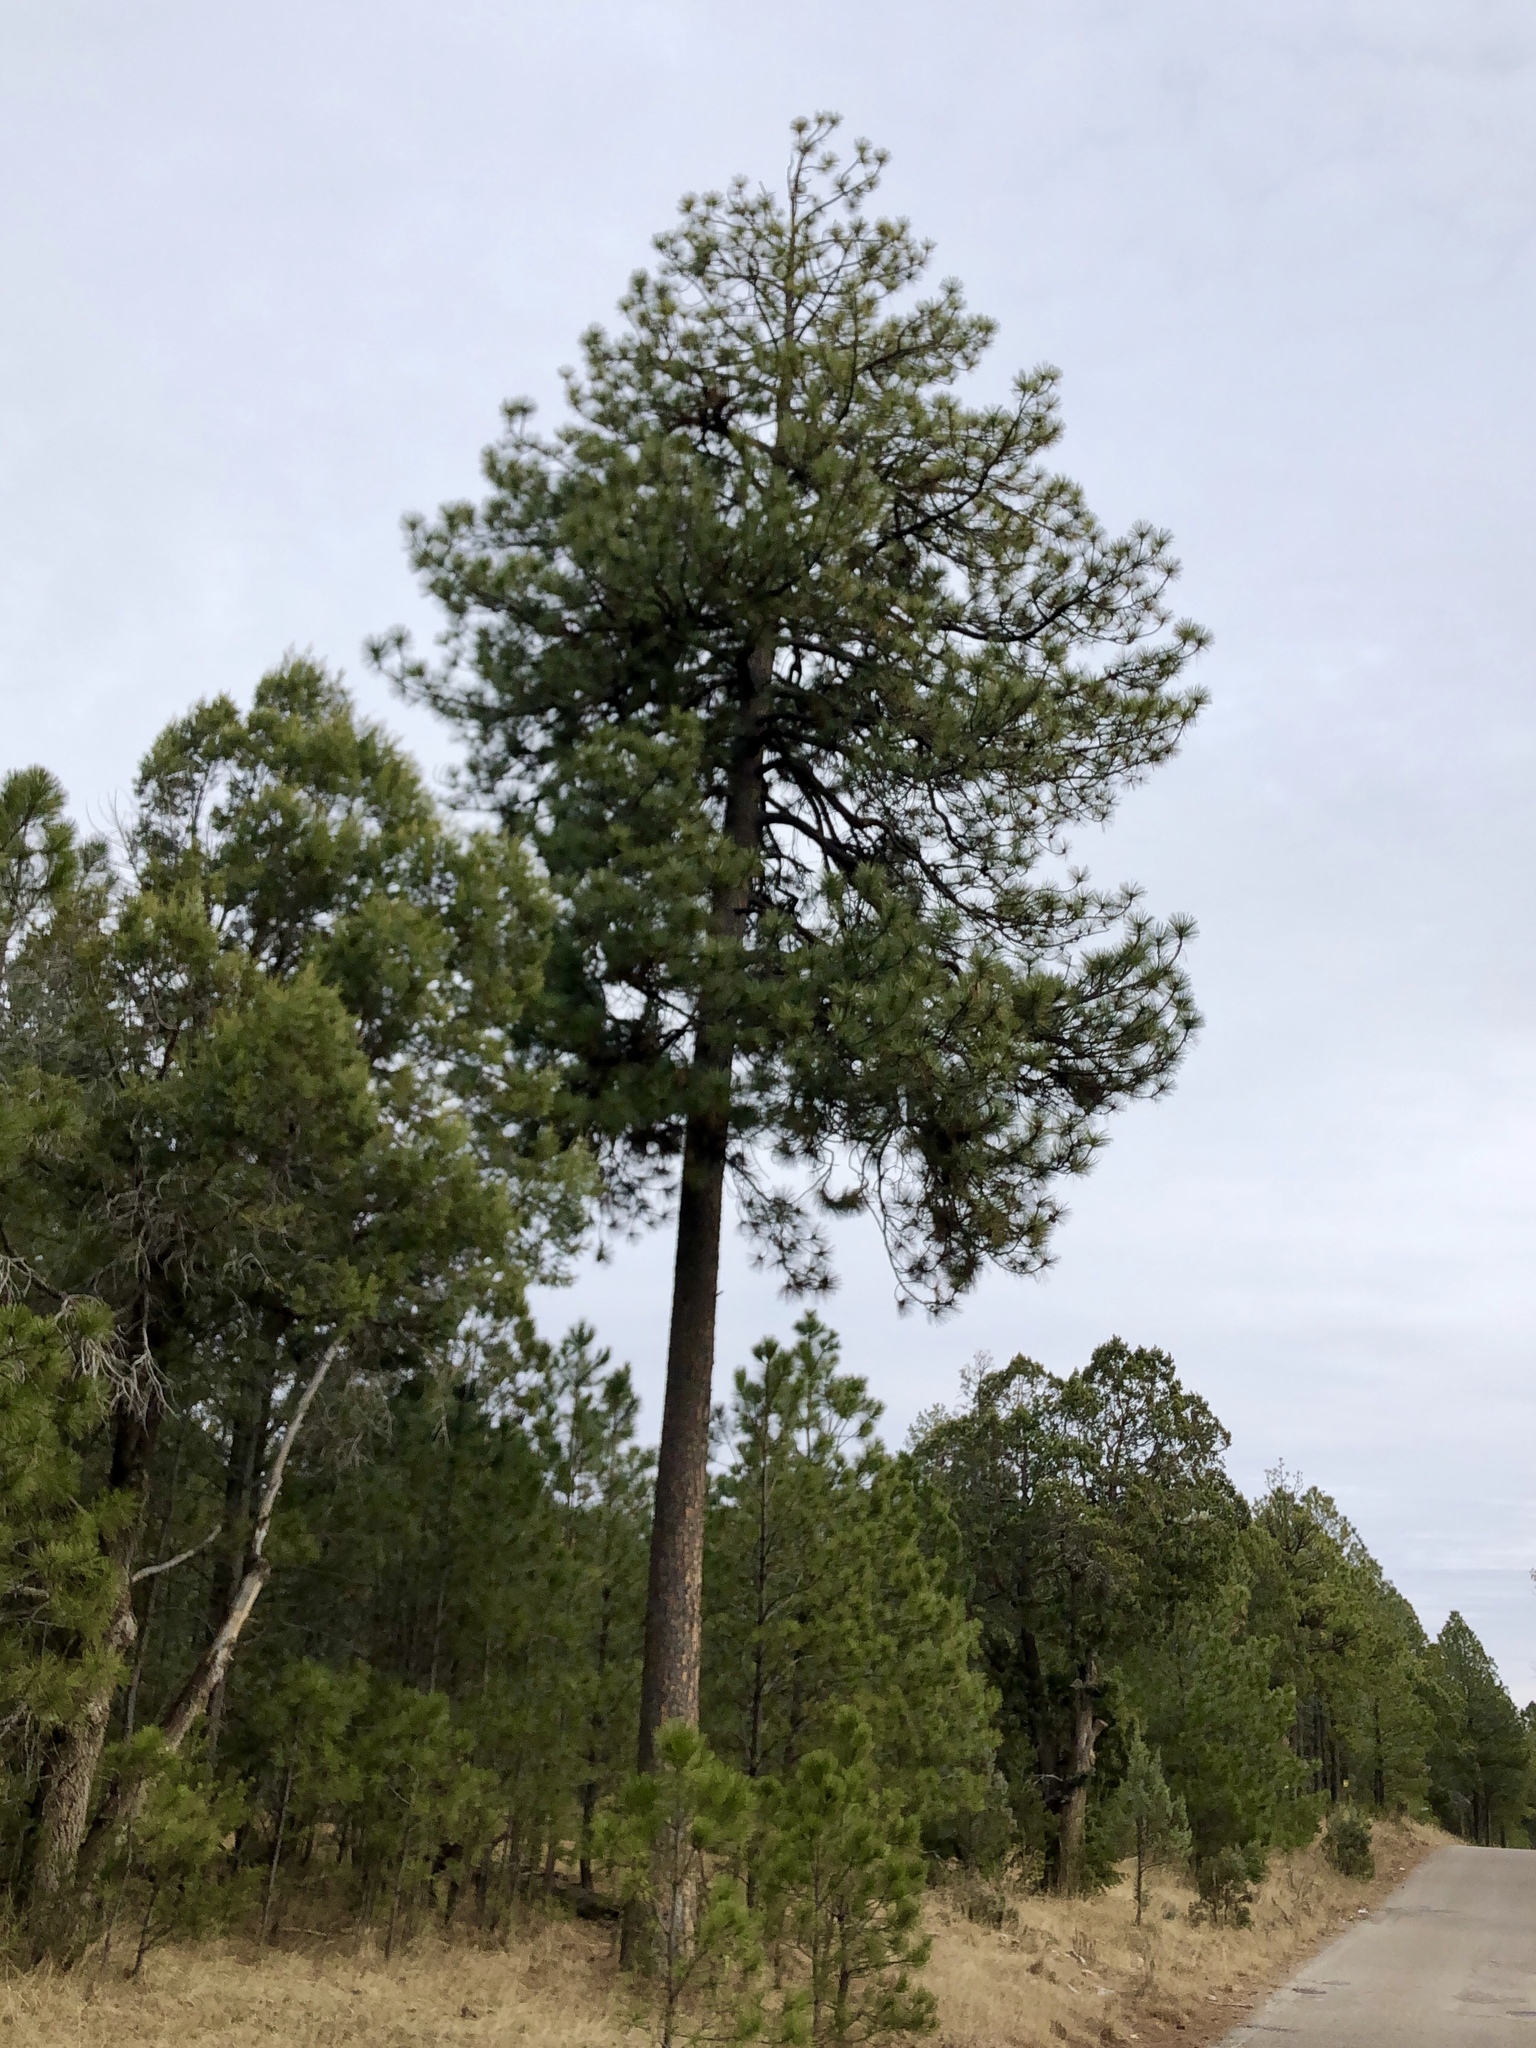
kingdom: Plantae
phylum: Tracheophyta
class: Pinopsida
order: Pinales
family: Pinaceae
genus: Pinus
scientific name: Pinus ponderosa
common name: Western yellow-pine
